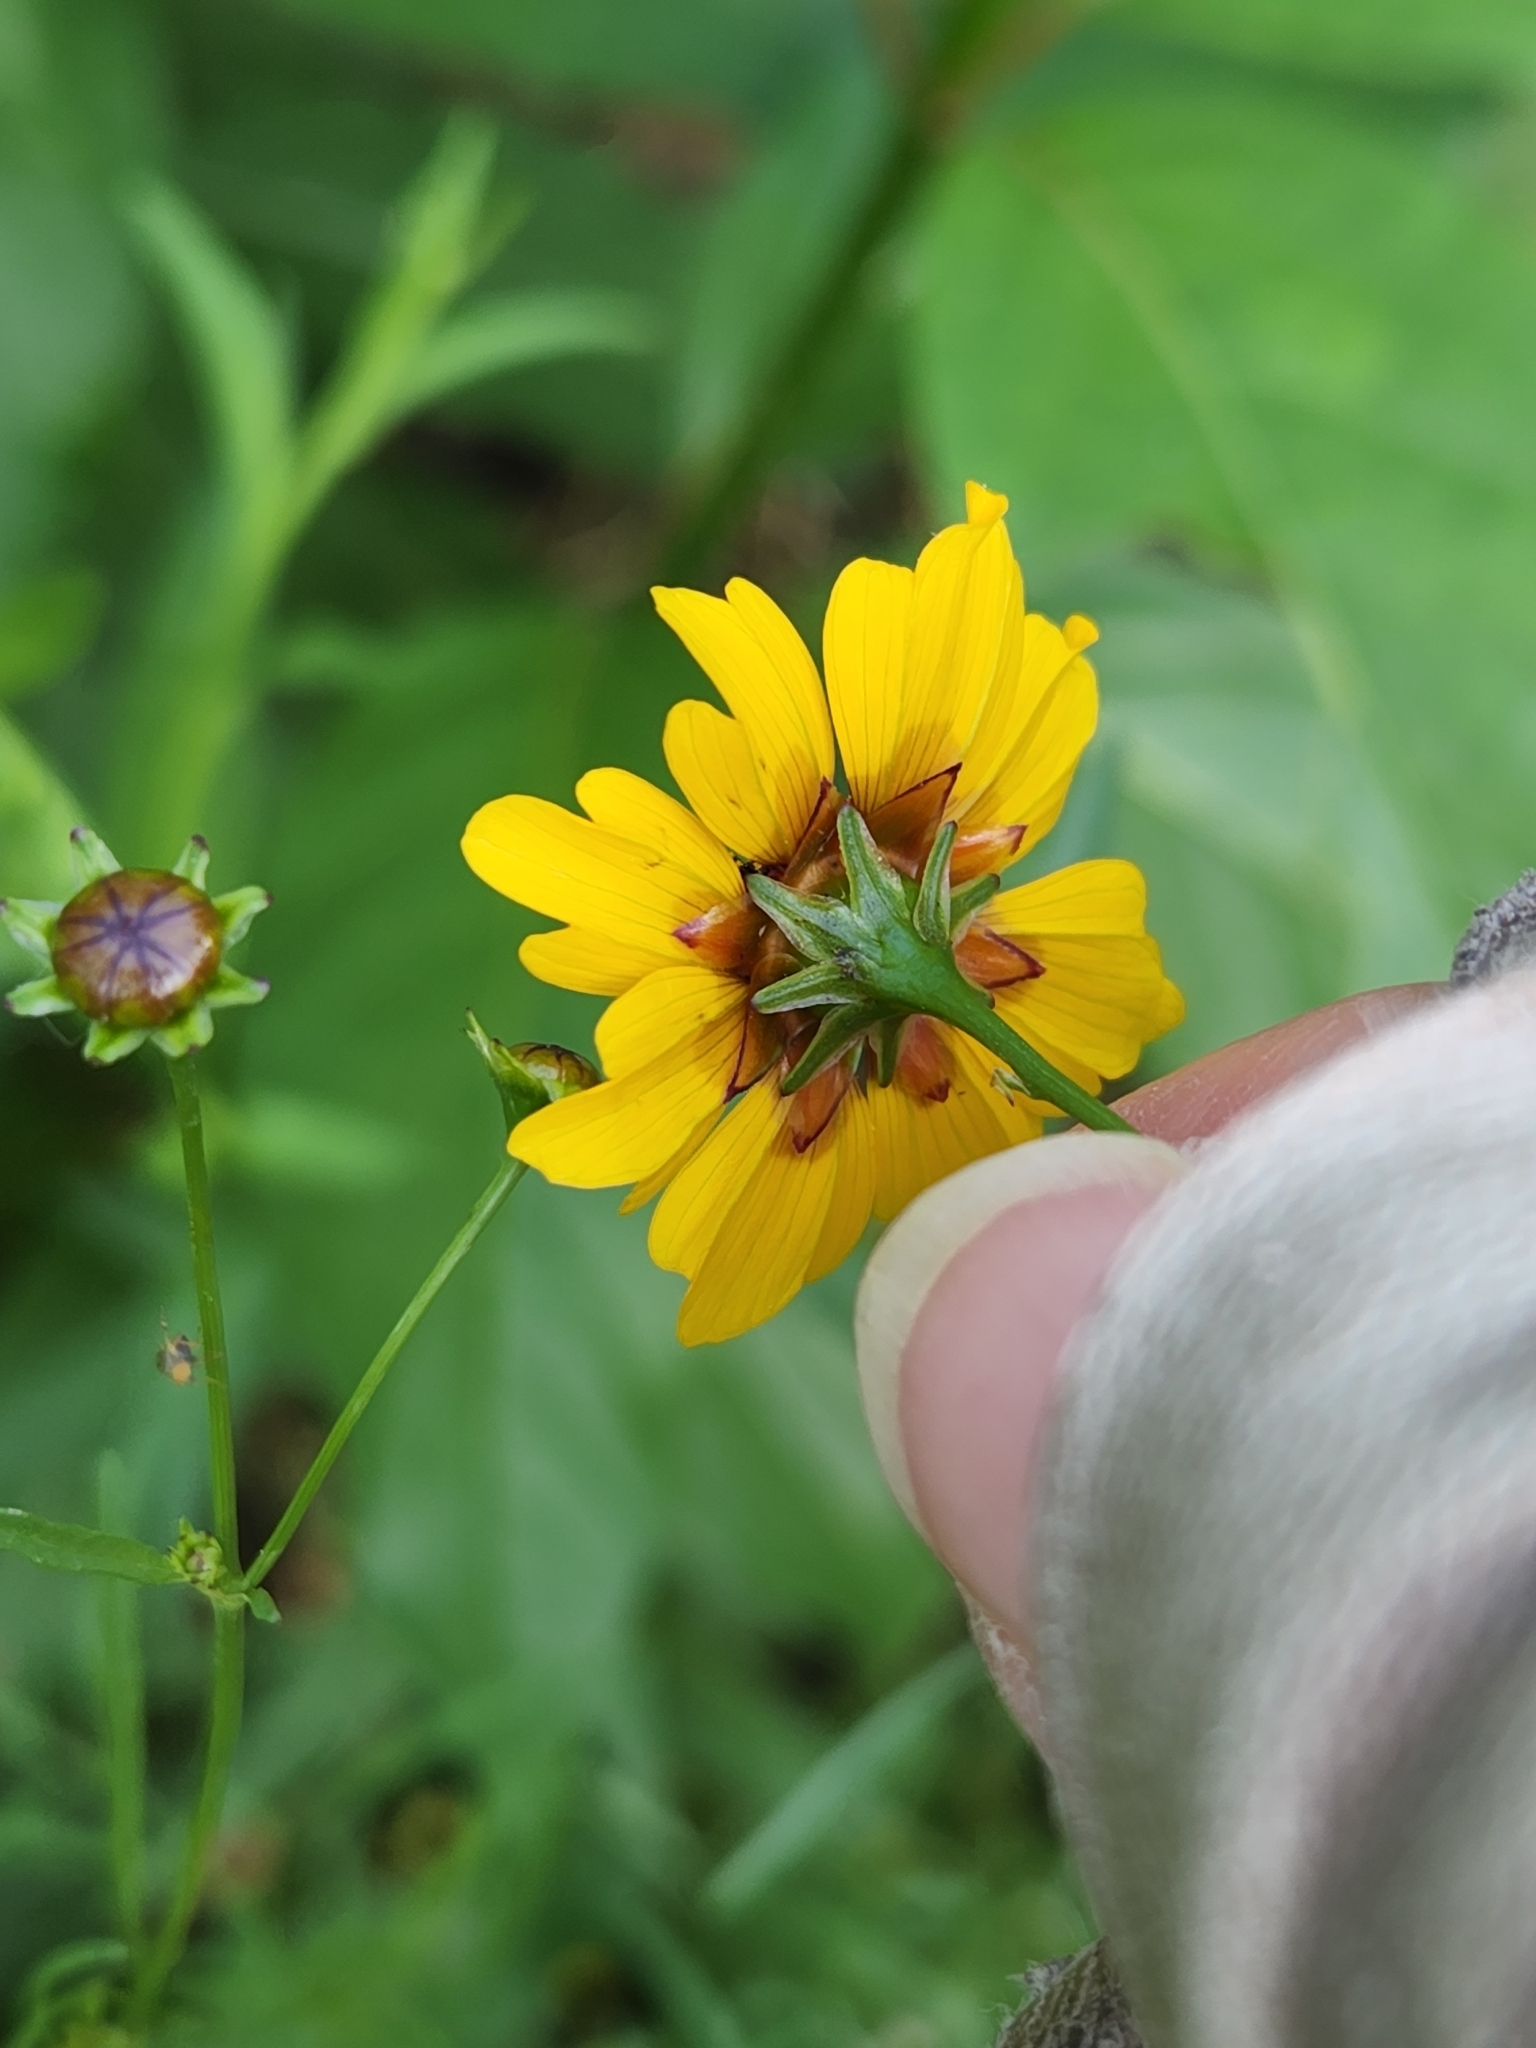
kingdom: Plantae
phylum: Tracheophyta
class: Magnoliopsida
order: Asterales
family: Asteraceae
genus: Coreopsis
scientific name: Coreopsis tinctoria
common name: Garden tickseed
